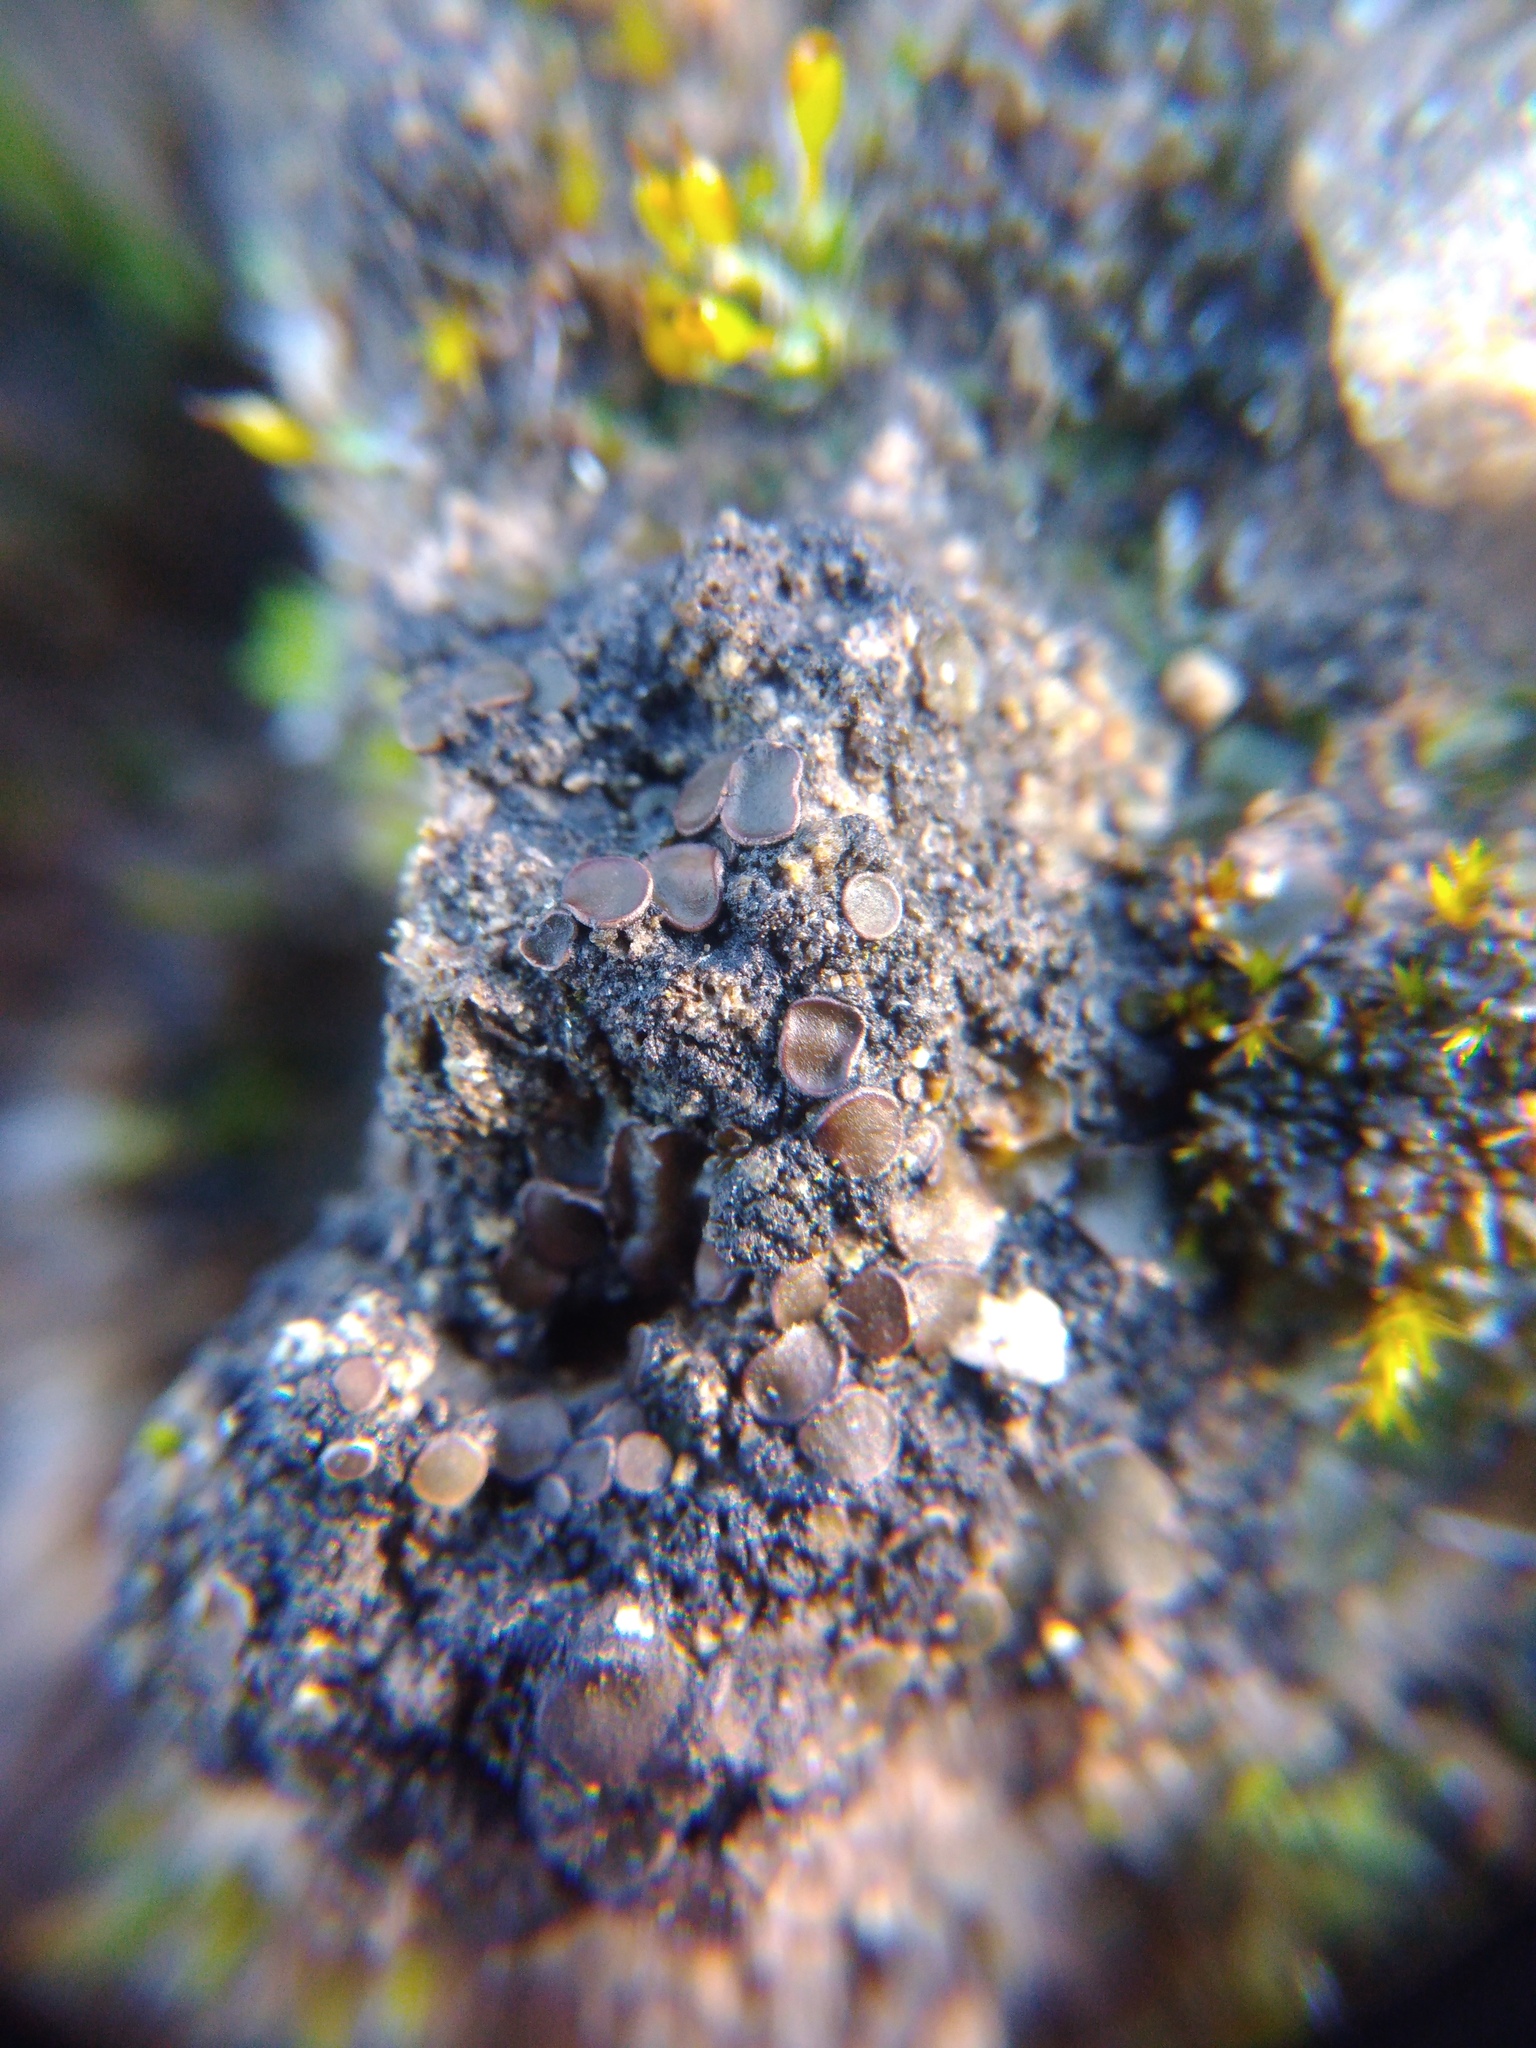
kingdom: Fungi
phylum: Ascomycota
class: Eurotiomycetes
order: Verrucariales
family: Verrucariaceae
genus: Catapyrenium
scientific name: Catapyrenium squamulosum
